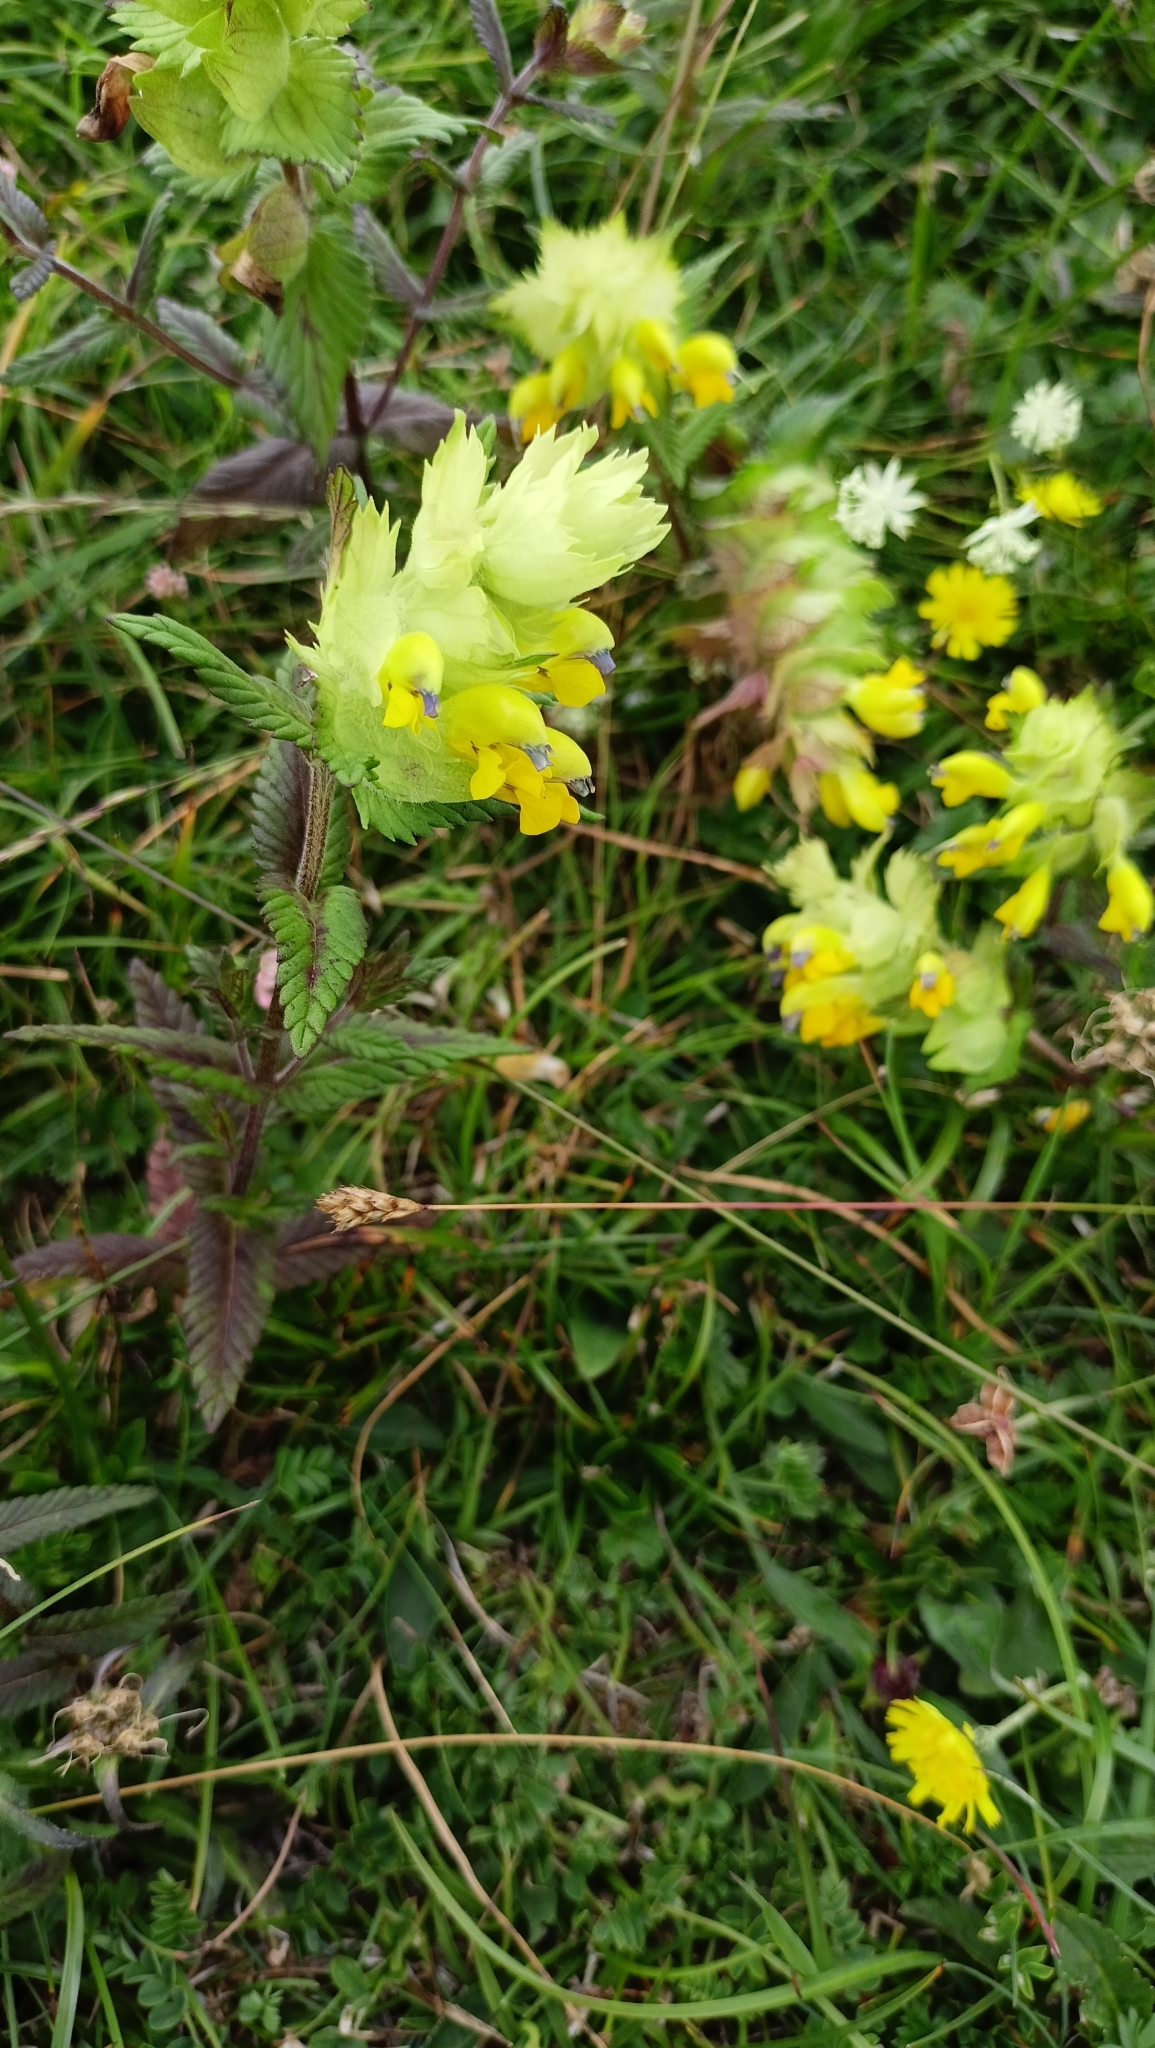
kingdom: Plantae
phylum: Tracheophyta
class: Magnoliopsida
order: Lamiales
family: Orobanchaceae
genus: Rhinanthus
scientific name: Rhinanthus alectorolophus
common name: Greater yellow-rattle
